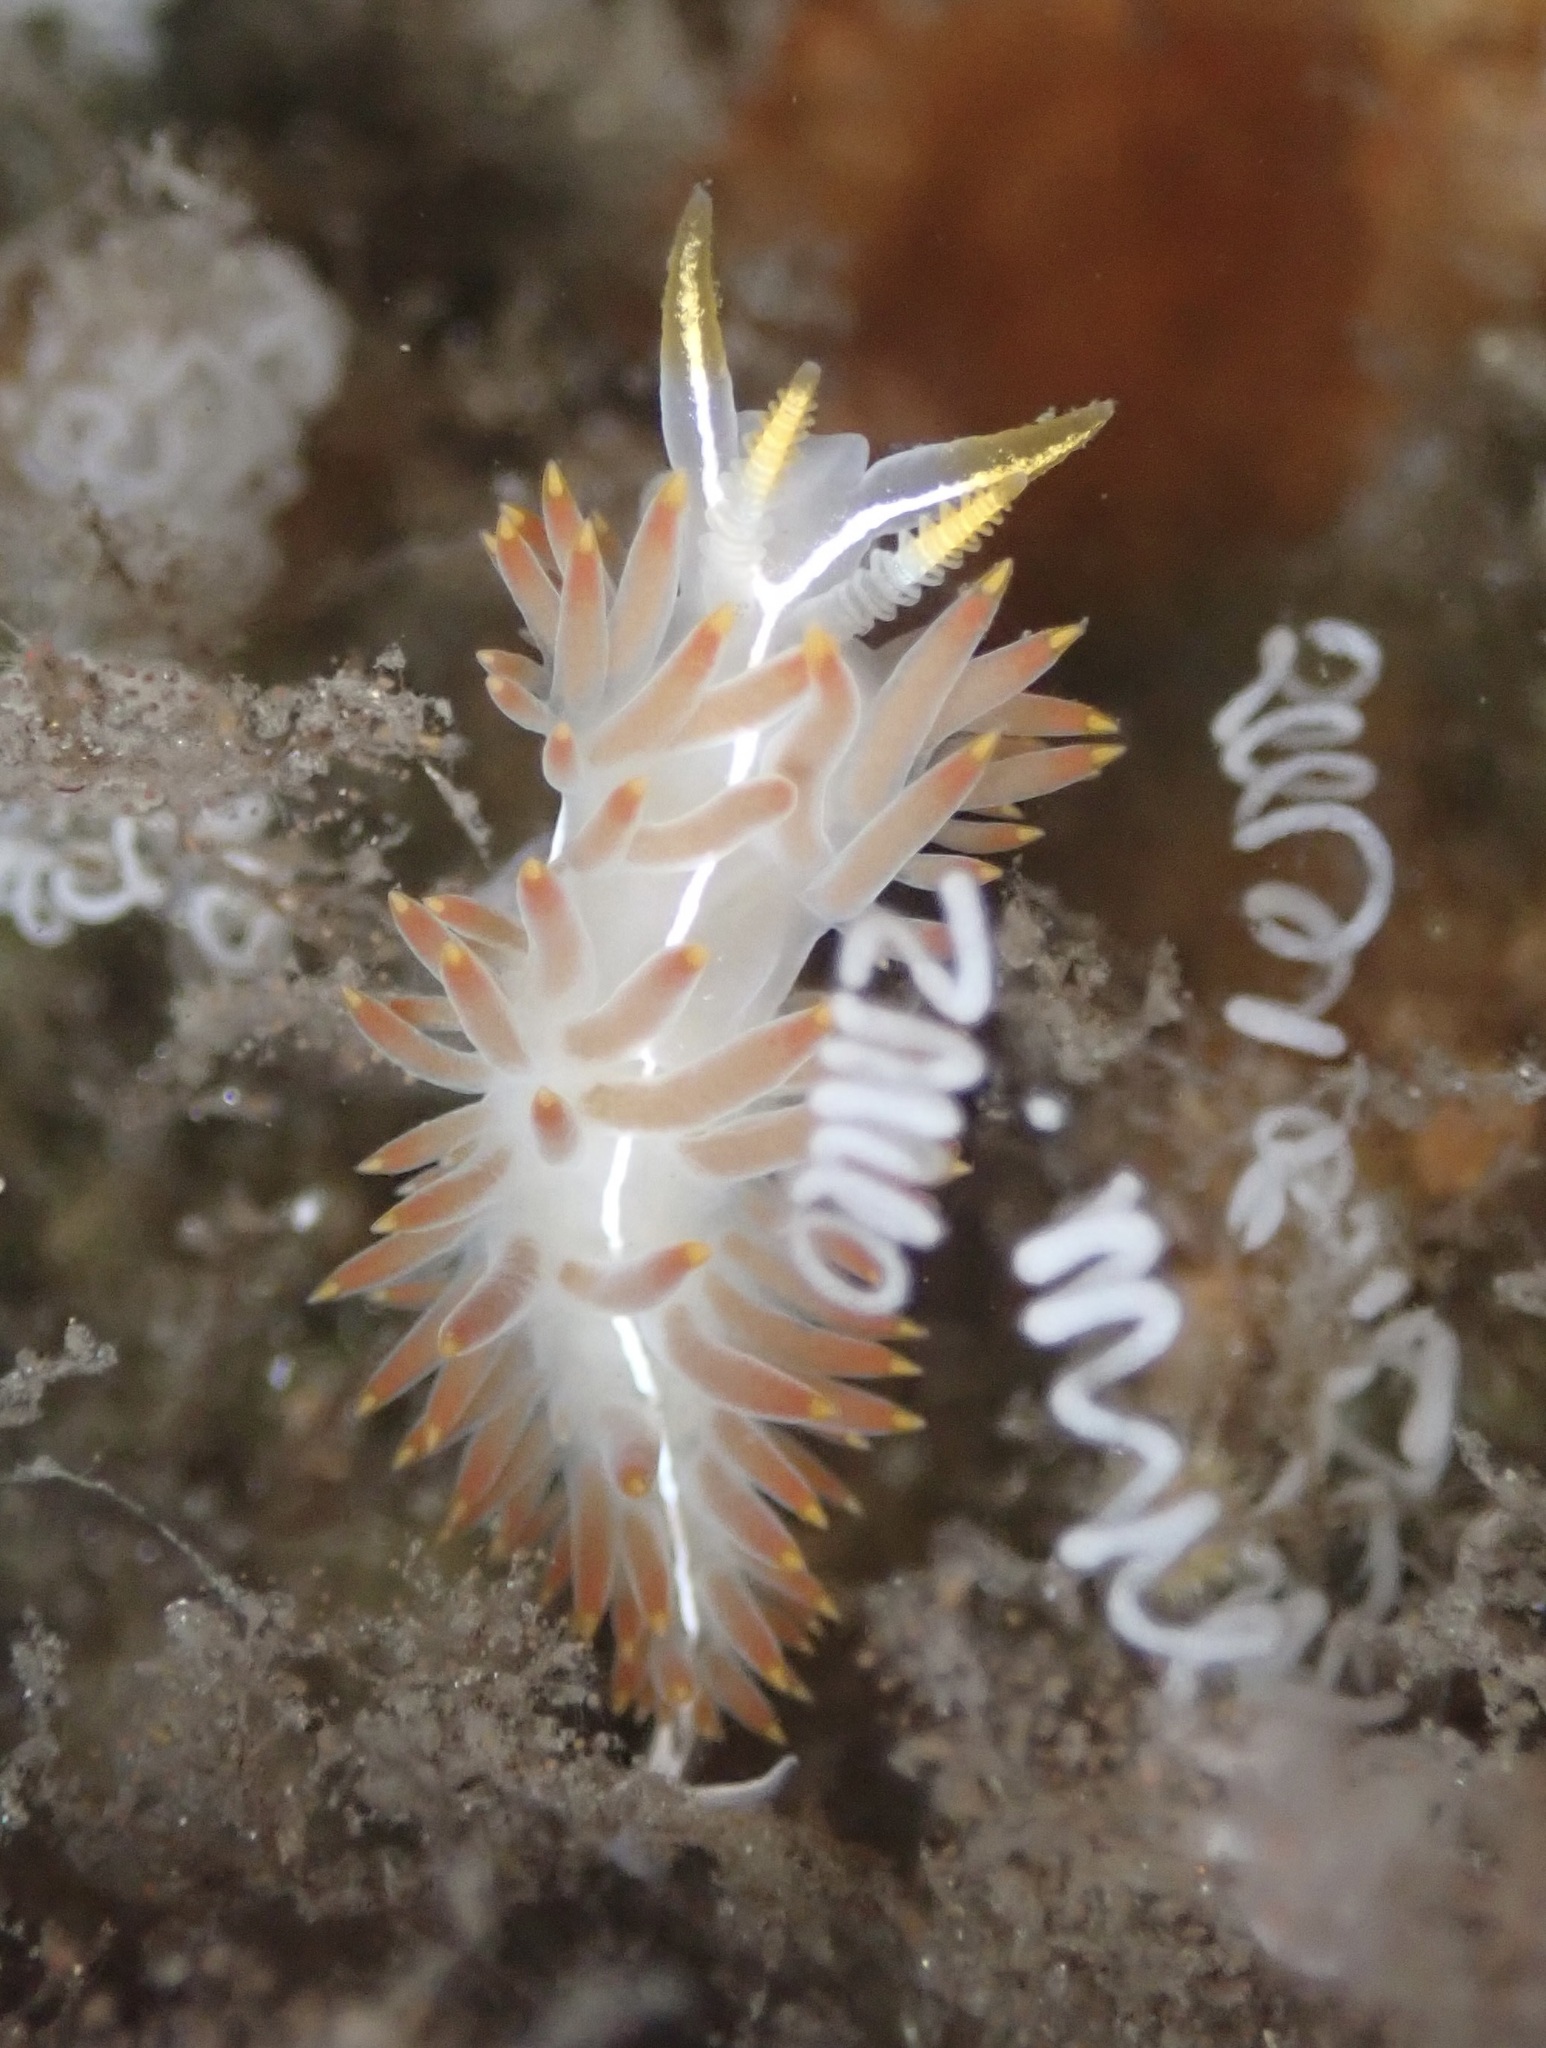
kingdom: Animalia
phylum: Mollusca
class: Gastropoda
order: Nudibranchia
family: Coryphellidae
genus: Coryphella
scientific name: Coryphella trilineata
